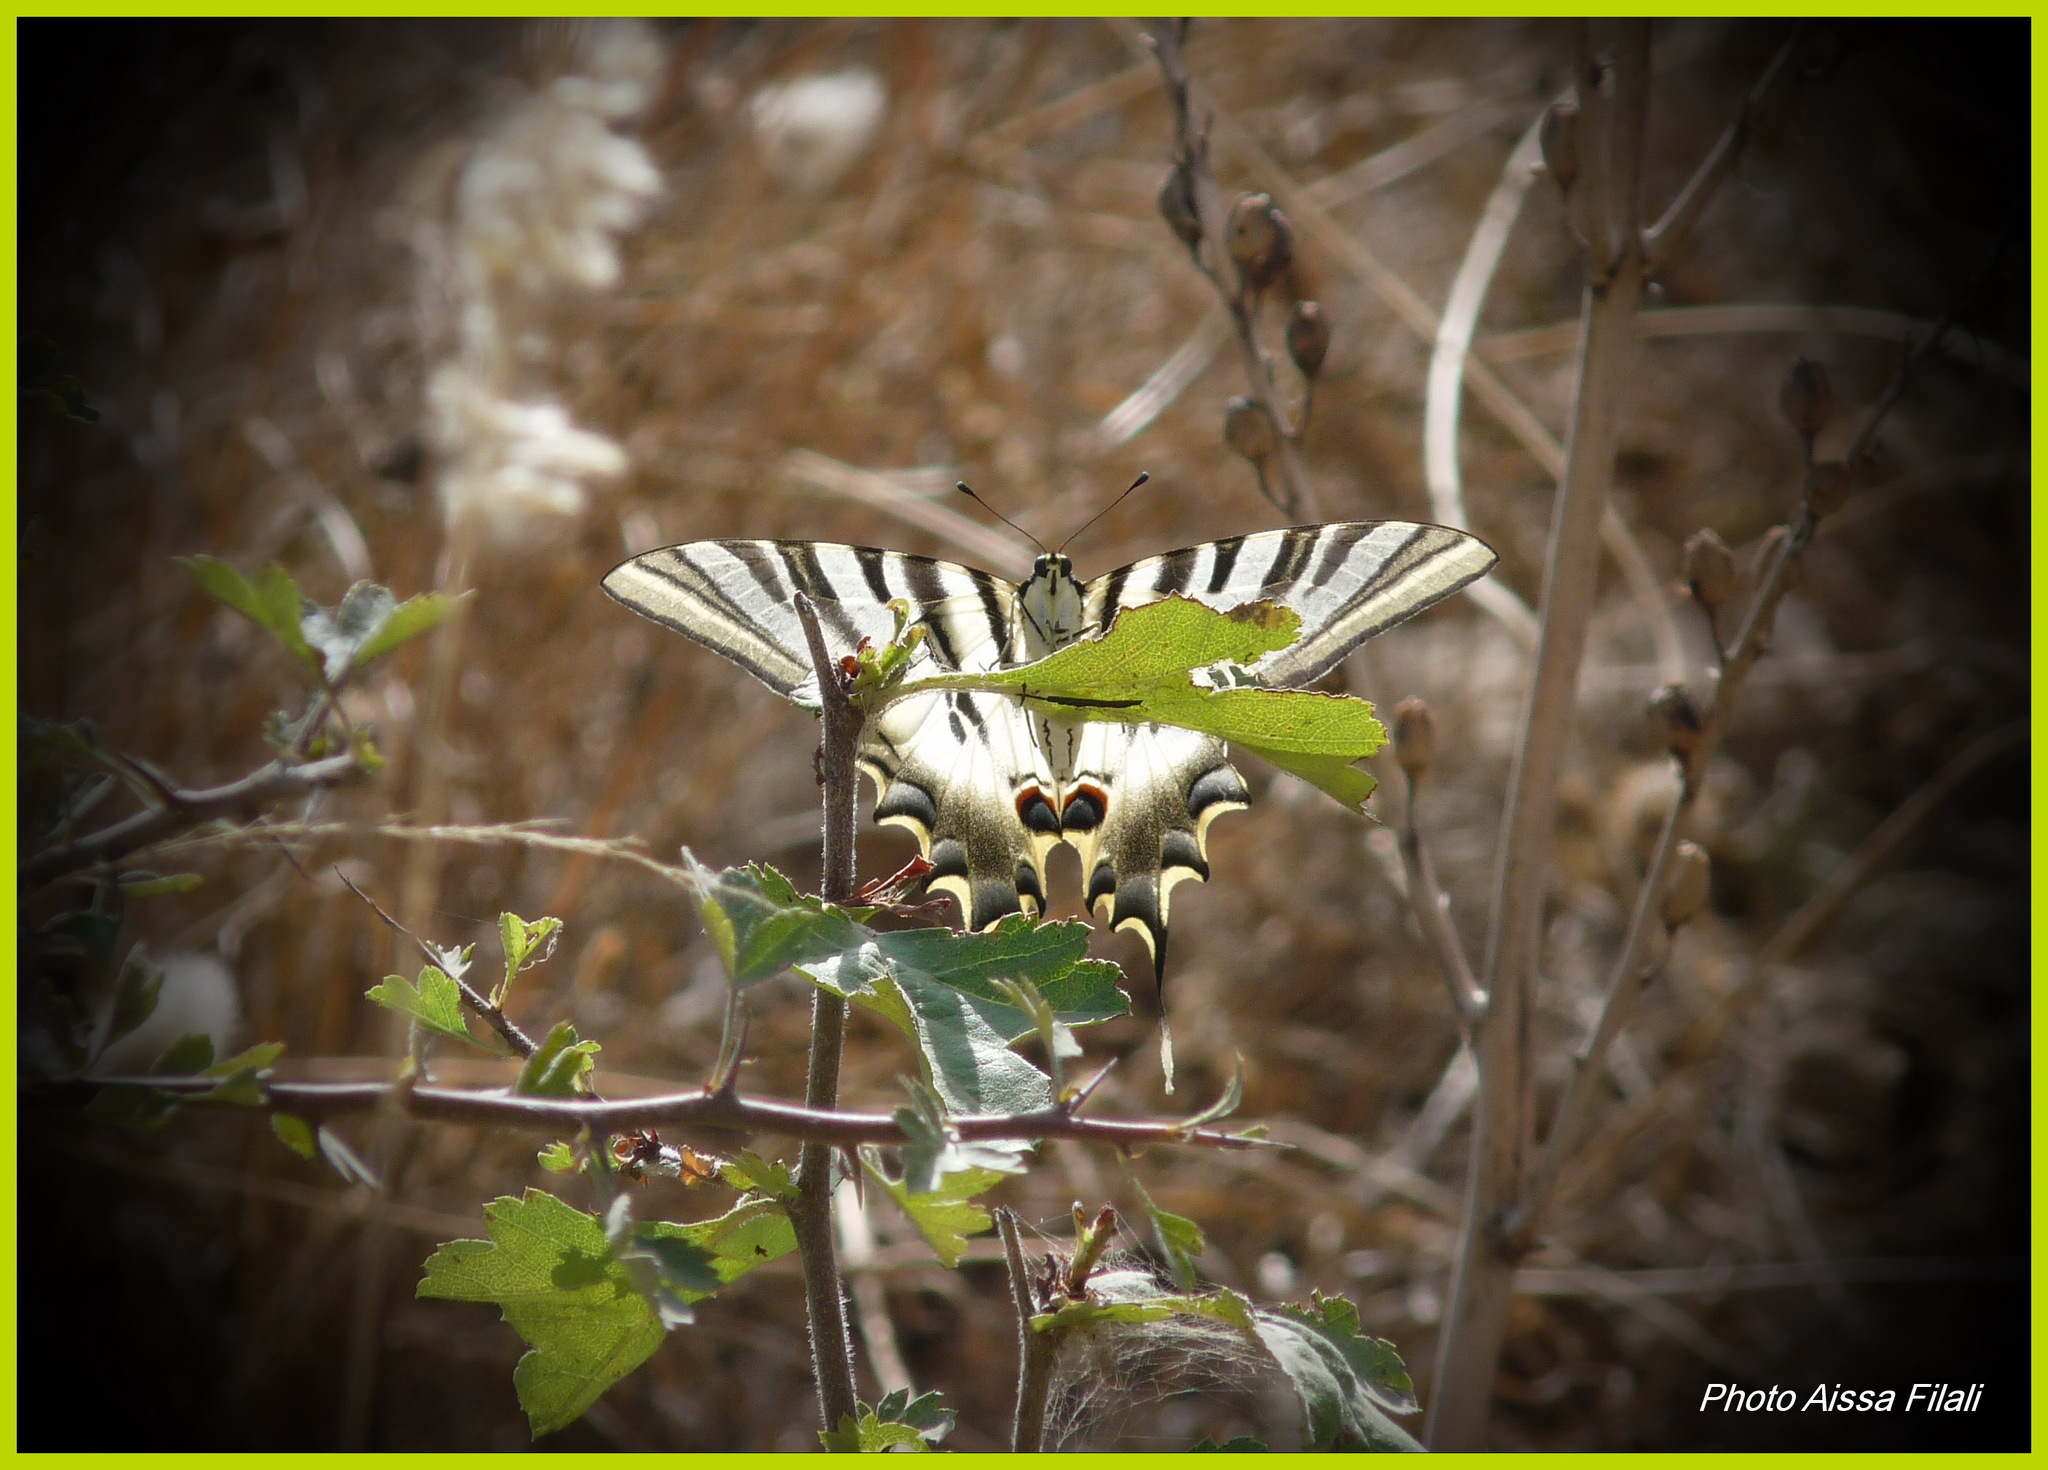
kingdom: Animalia
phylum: Arthropoda
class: Insecta
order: Lepidoptera
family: Papilionidae
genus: Iphiclides
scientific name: Iphiclides feisthamelii
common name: Iberian scarce swallowtail
